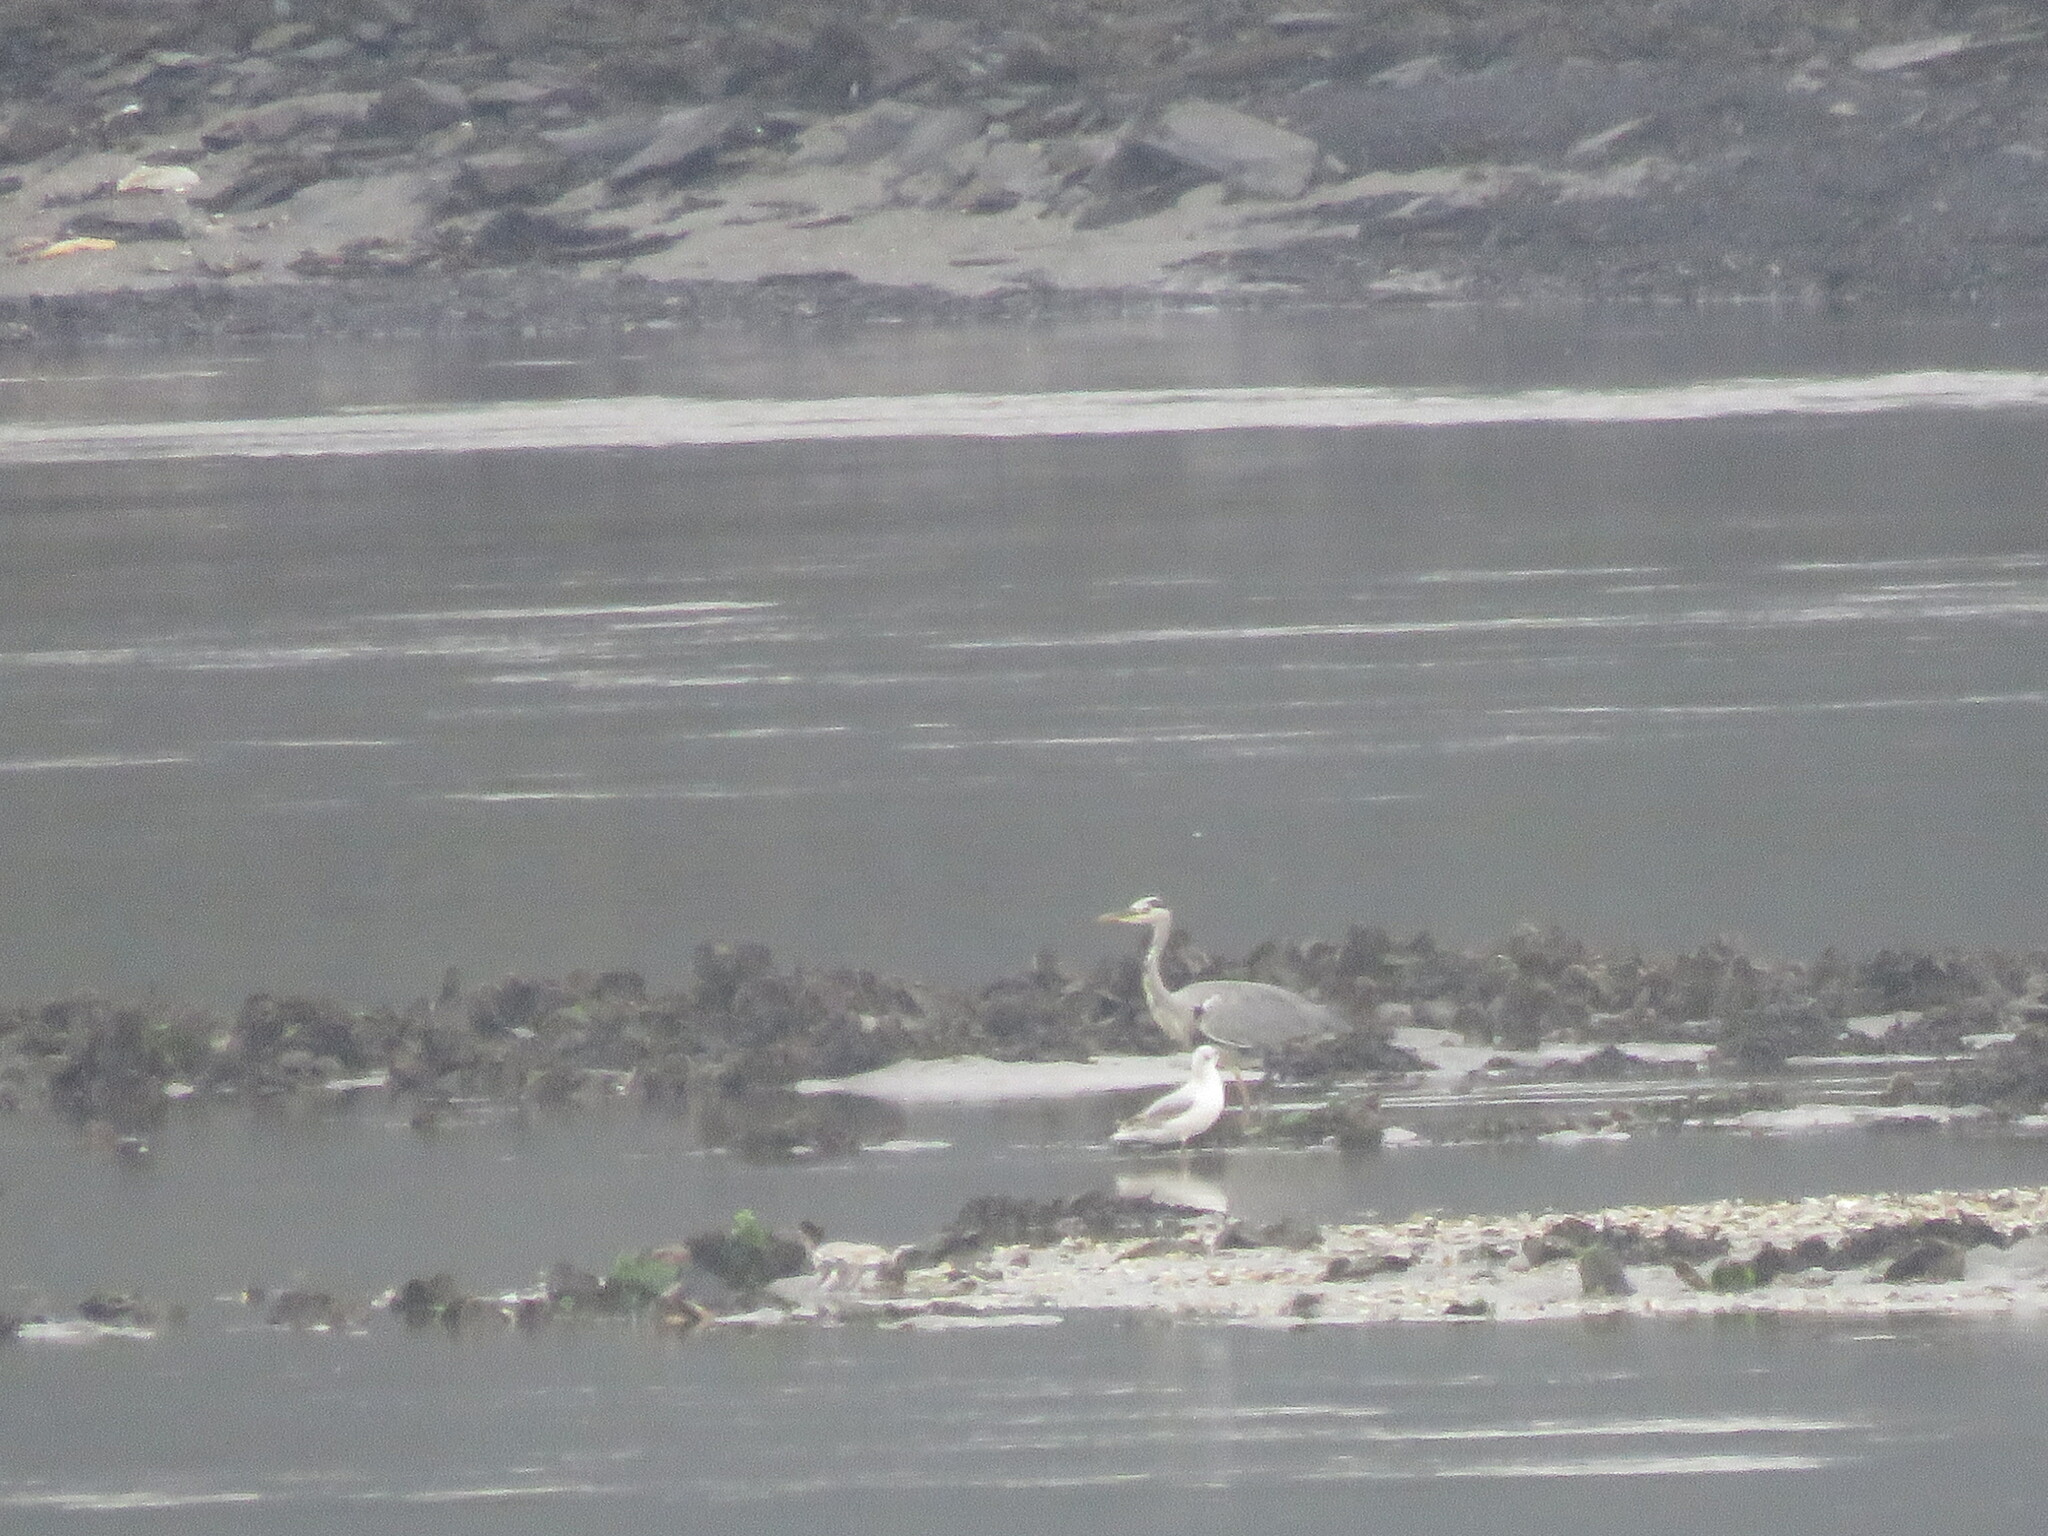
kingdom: Animalia
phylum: Chordata
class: Aves
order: Pelecaniformes
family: Ardeidae
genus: Ardea
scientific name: Ardea cinerea
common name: Grey heron
